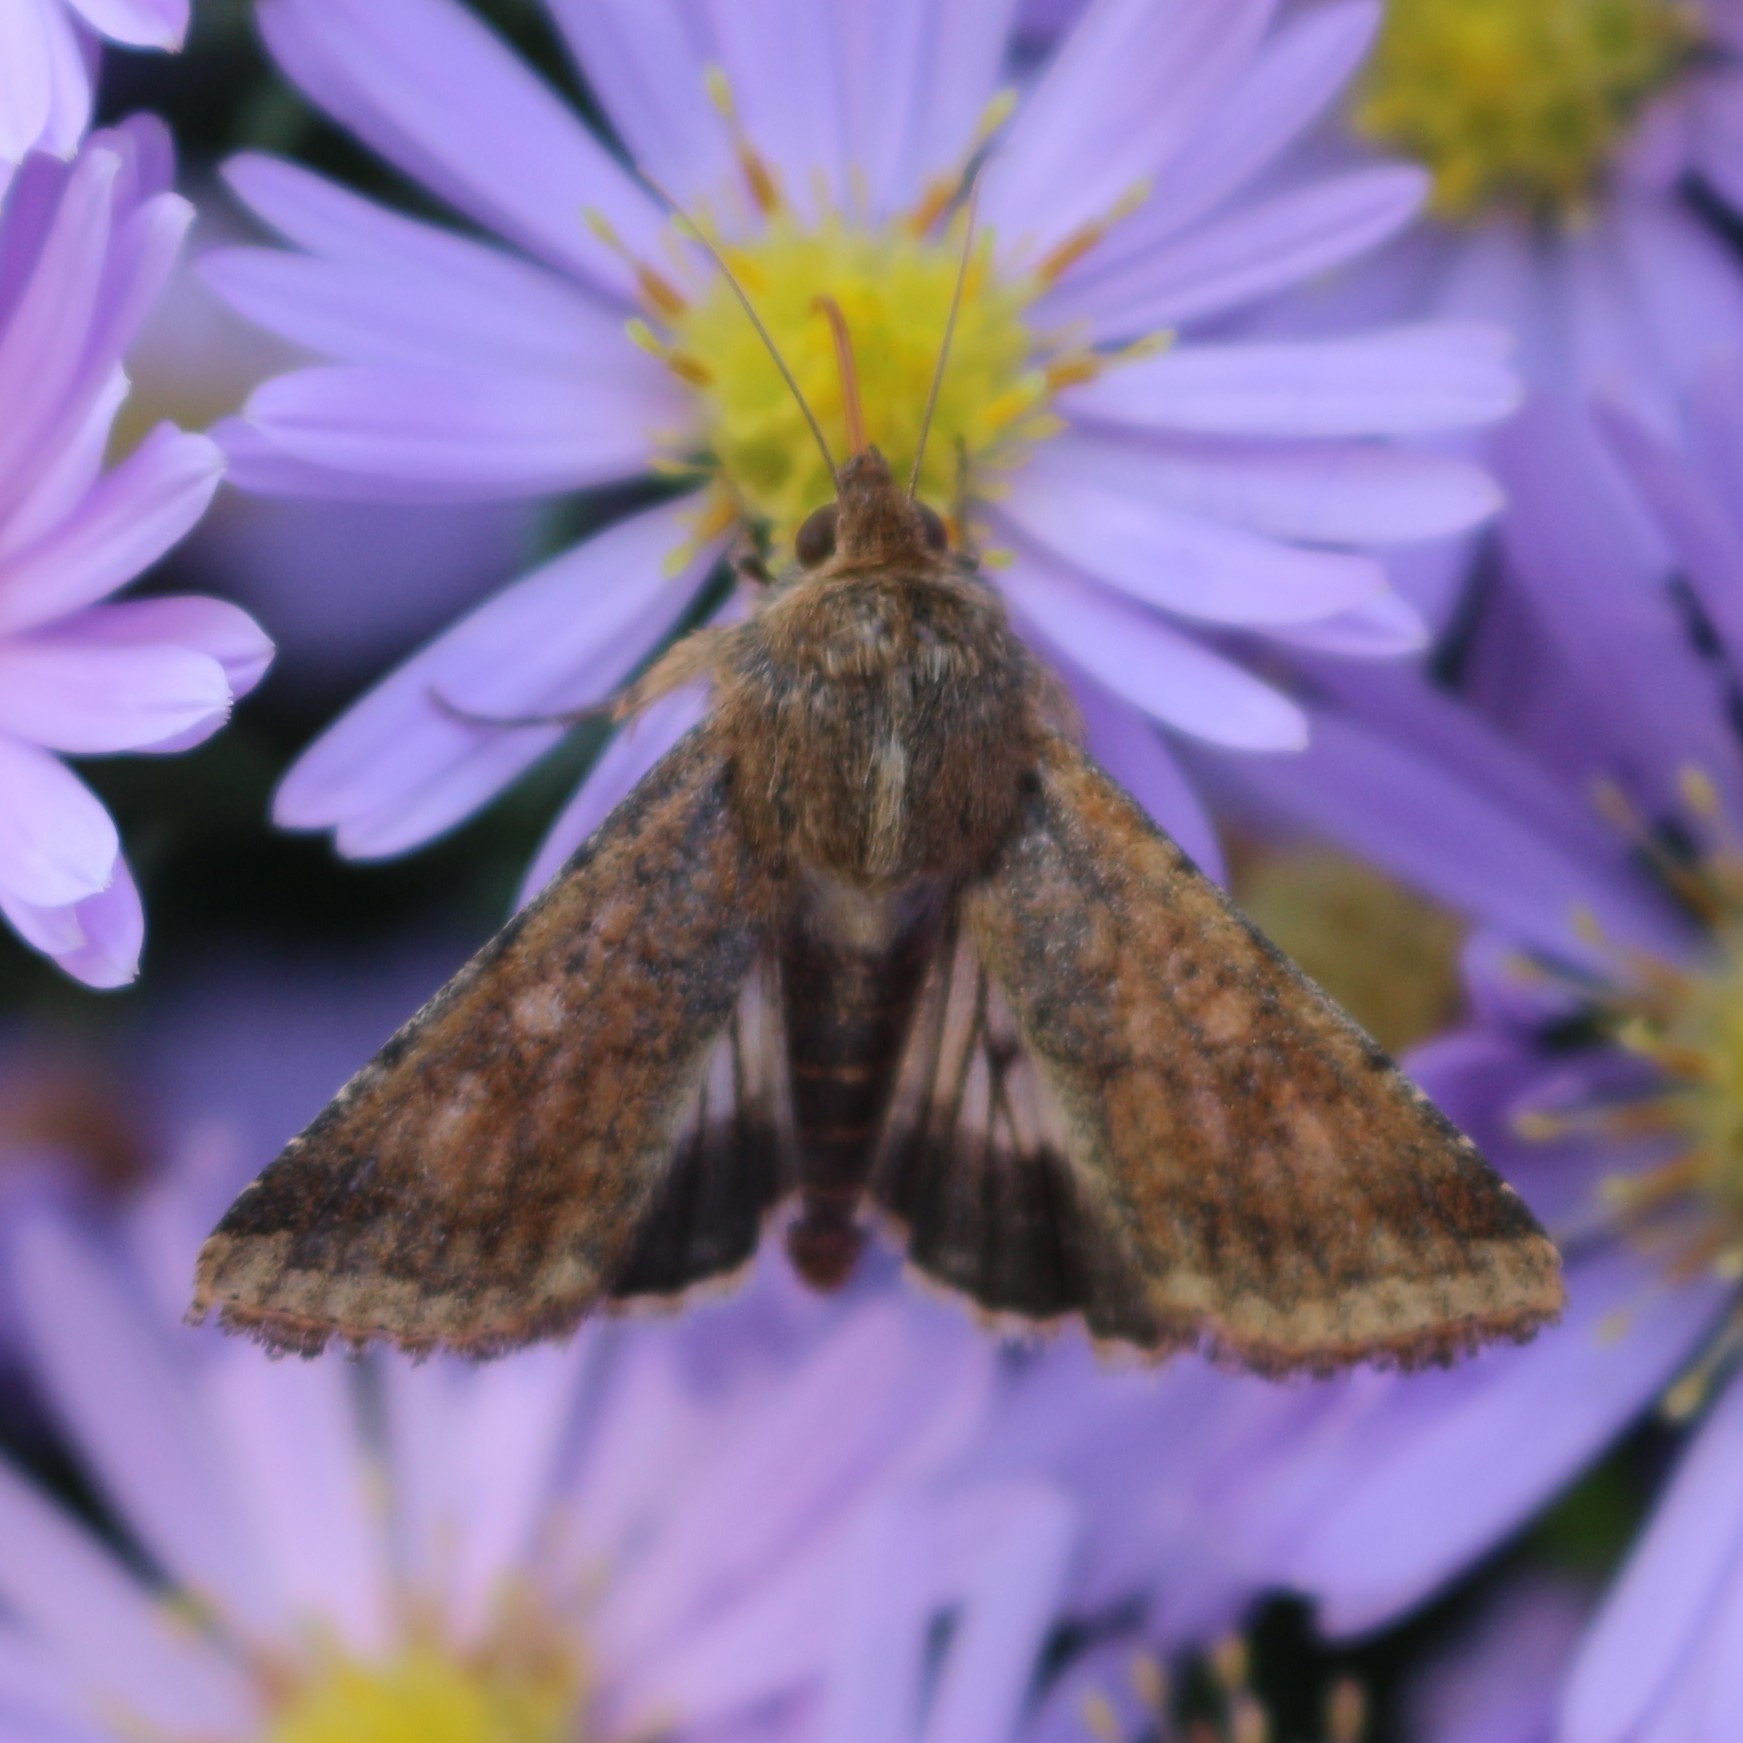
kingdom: Animalia
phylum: Arthropoda
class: Insecta
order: Lepidoptera
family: Noctuidae
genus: Helicoverpa
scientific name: Helicoverpa armigera
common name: Cotton bollworm
